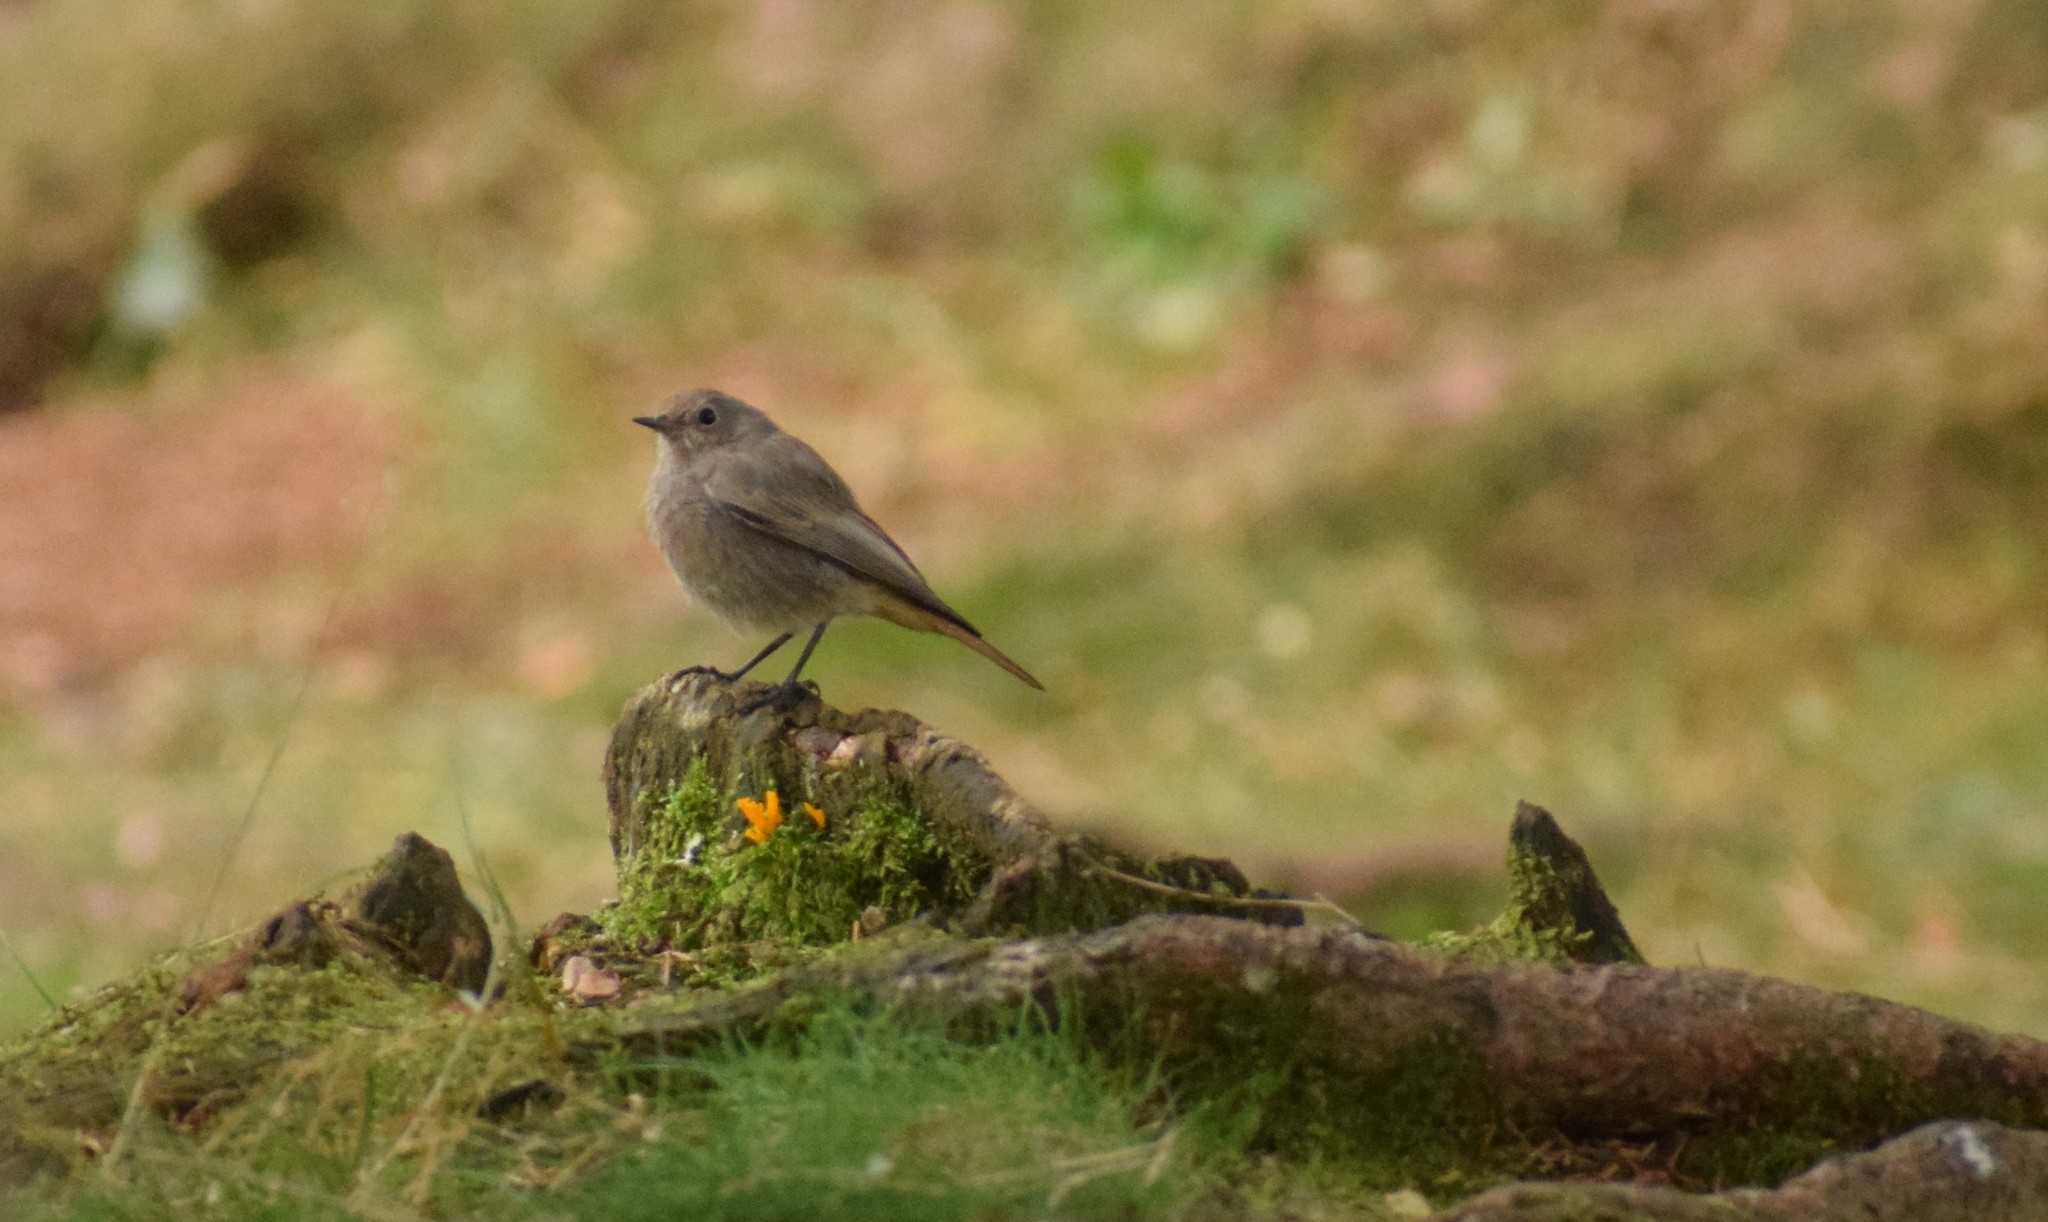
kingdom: Animalia
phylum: Chordata
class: Aves
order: Passeriformes
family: Muscicapidae
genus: Phoenicurus
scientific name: Phoenicurus ochruros
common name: Black redstart
